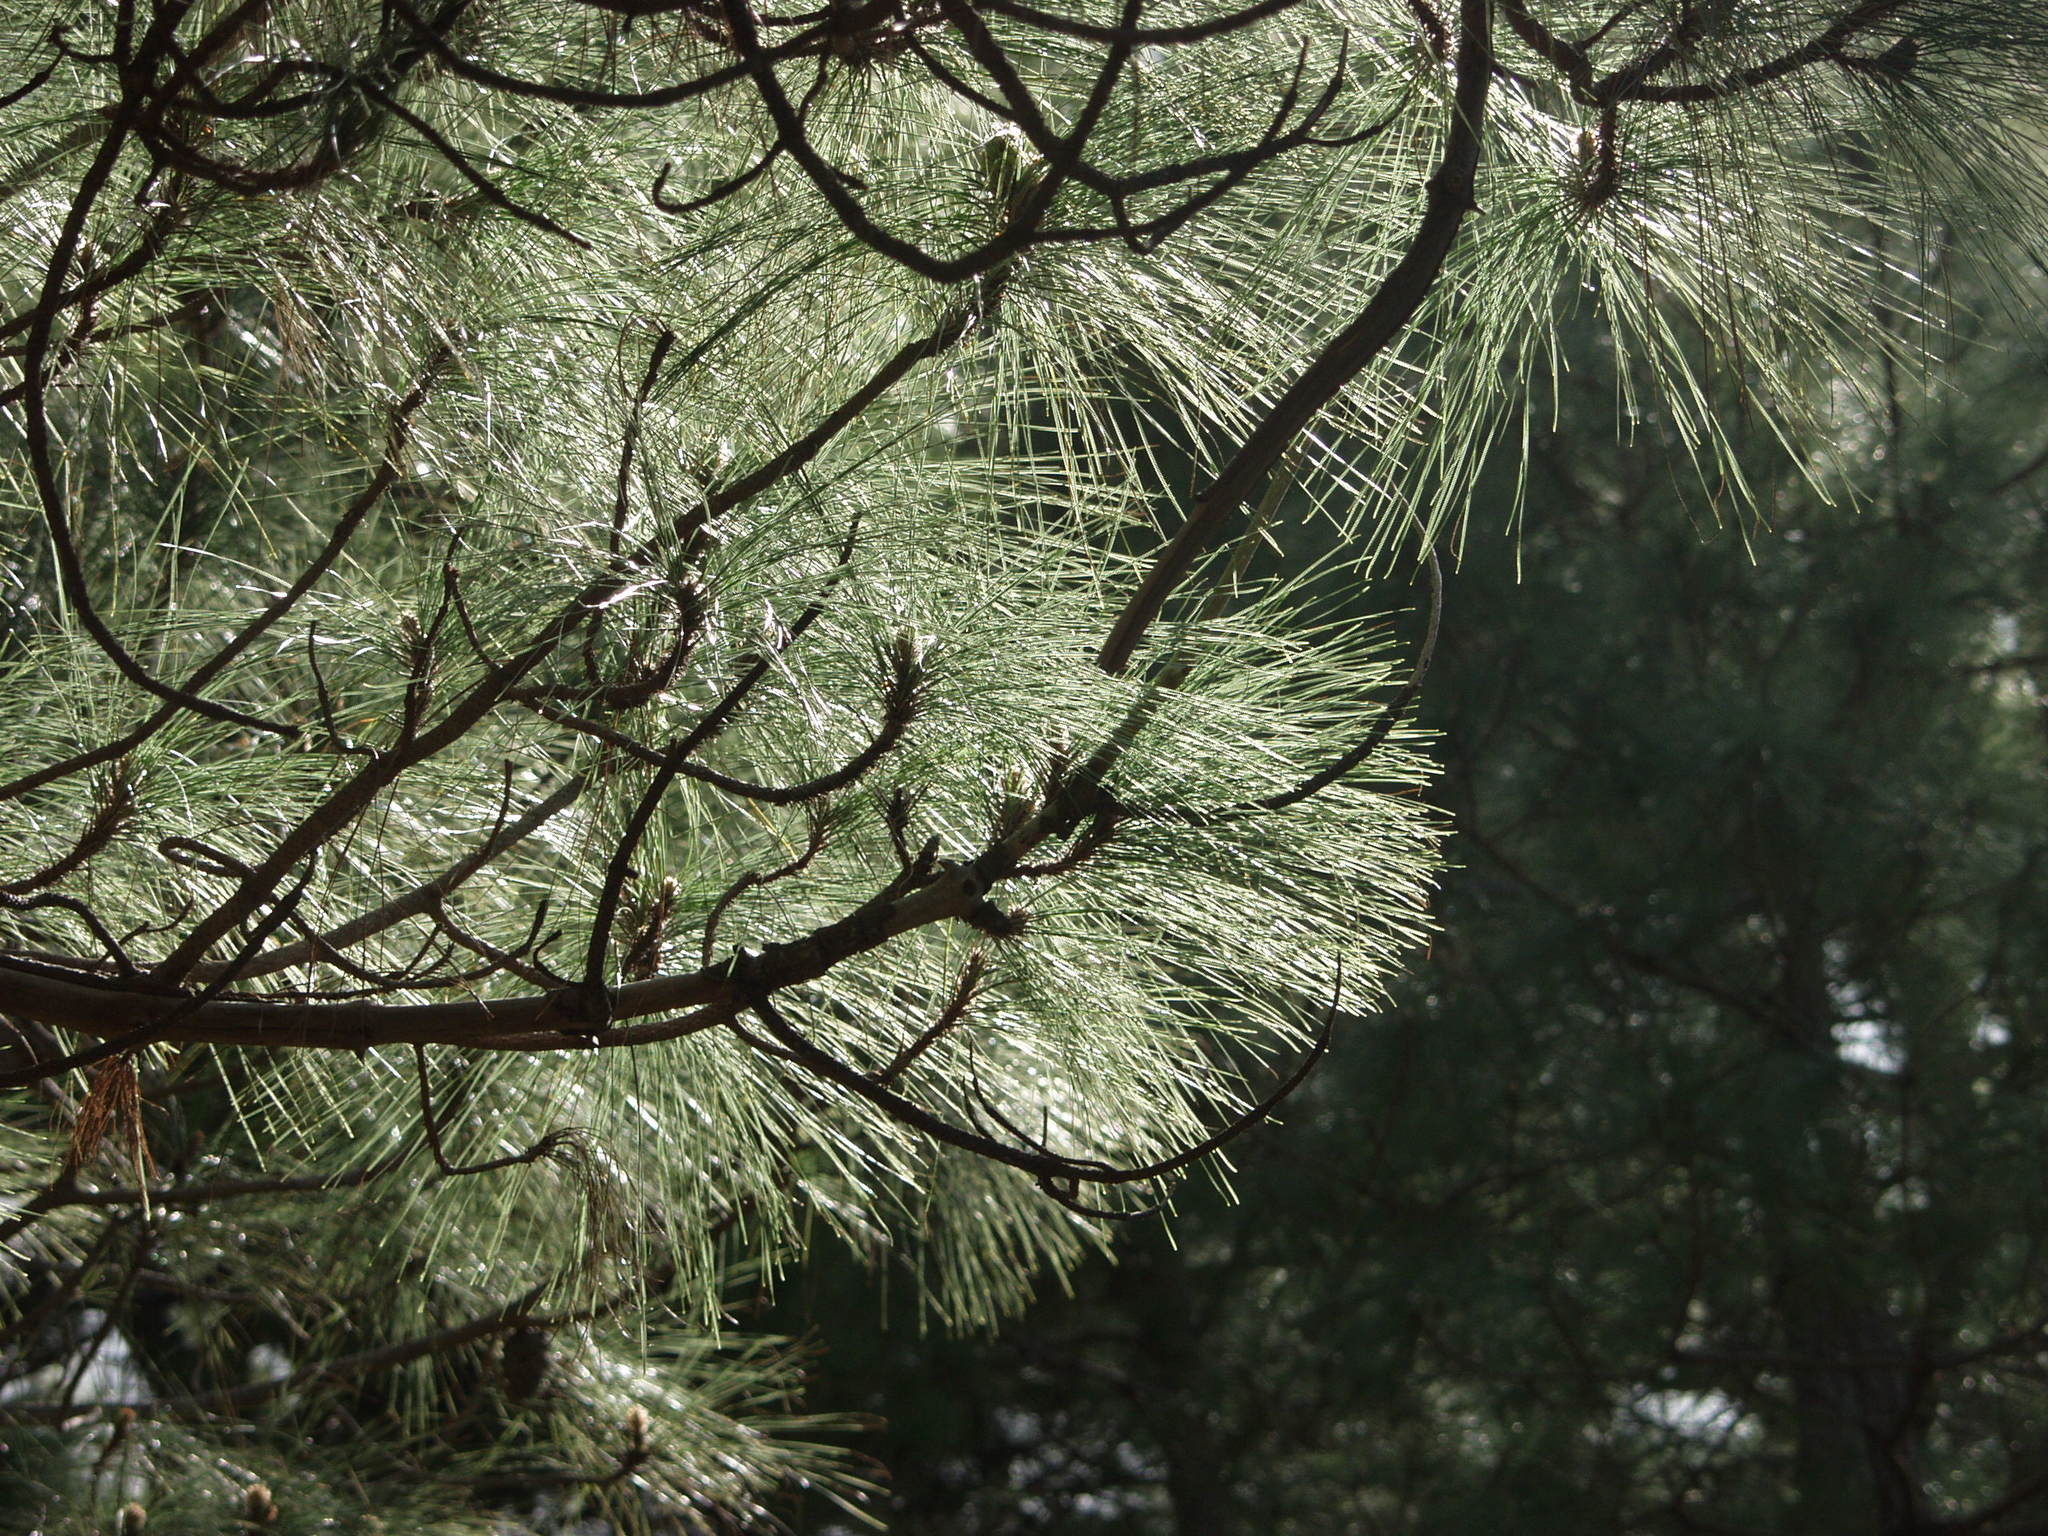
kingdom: Plantae
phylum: Tracheophyta
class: Pinopsida
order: Pinales
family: Pinaceae
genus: Pinus
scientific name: Pinus canariensis
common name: Canary islands pine
